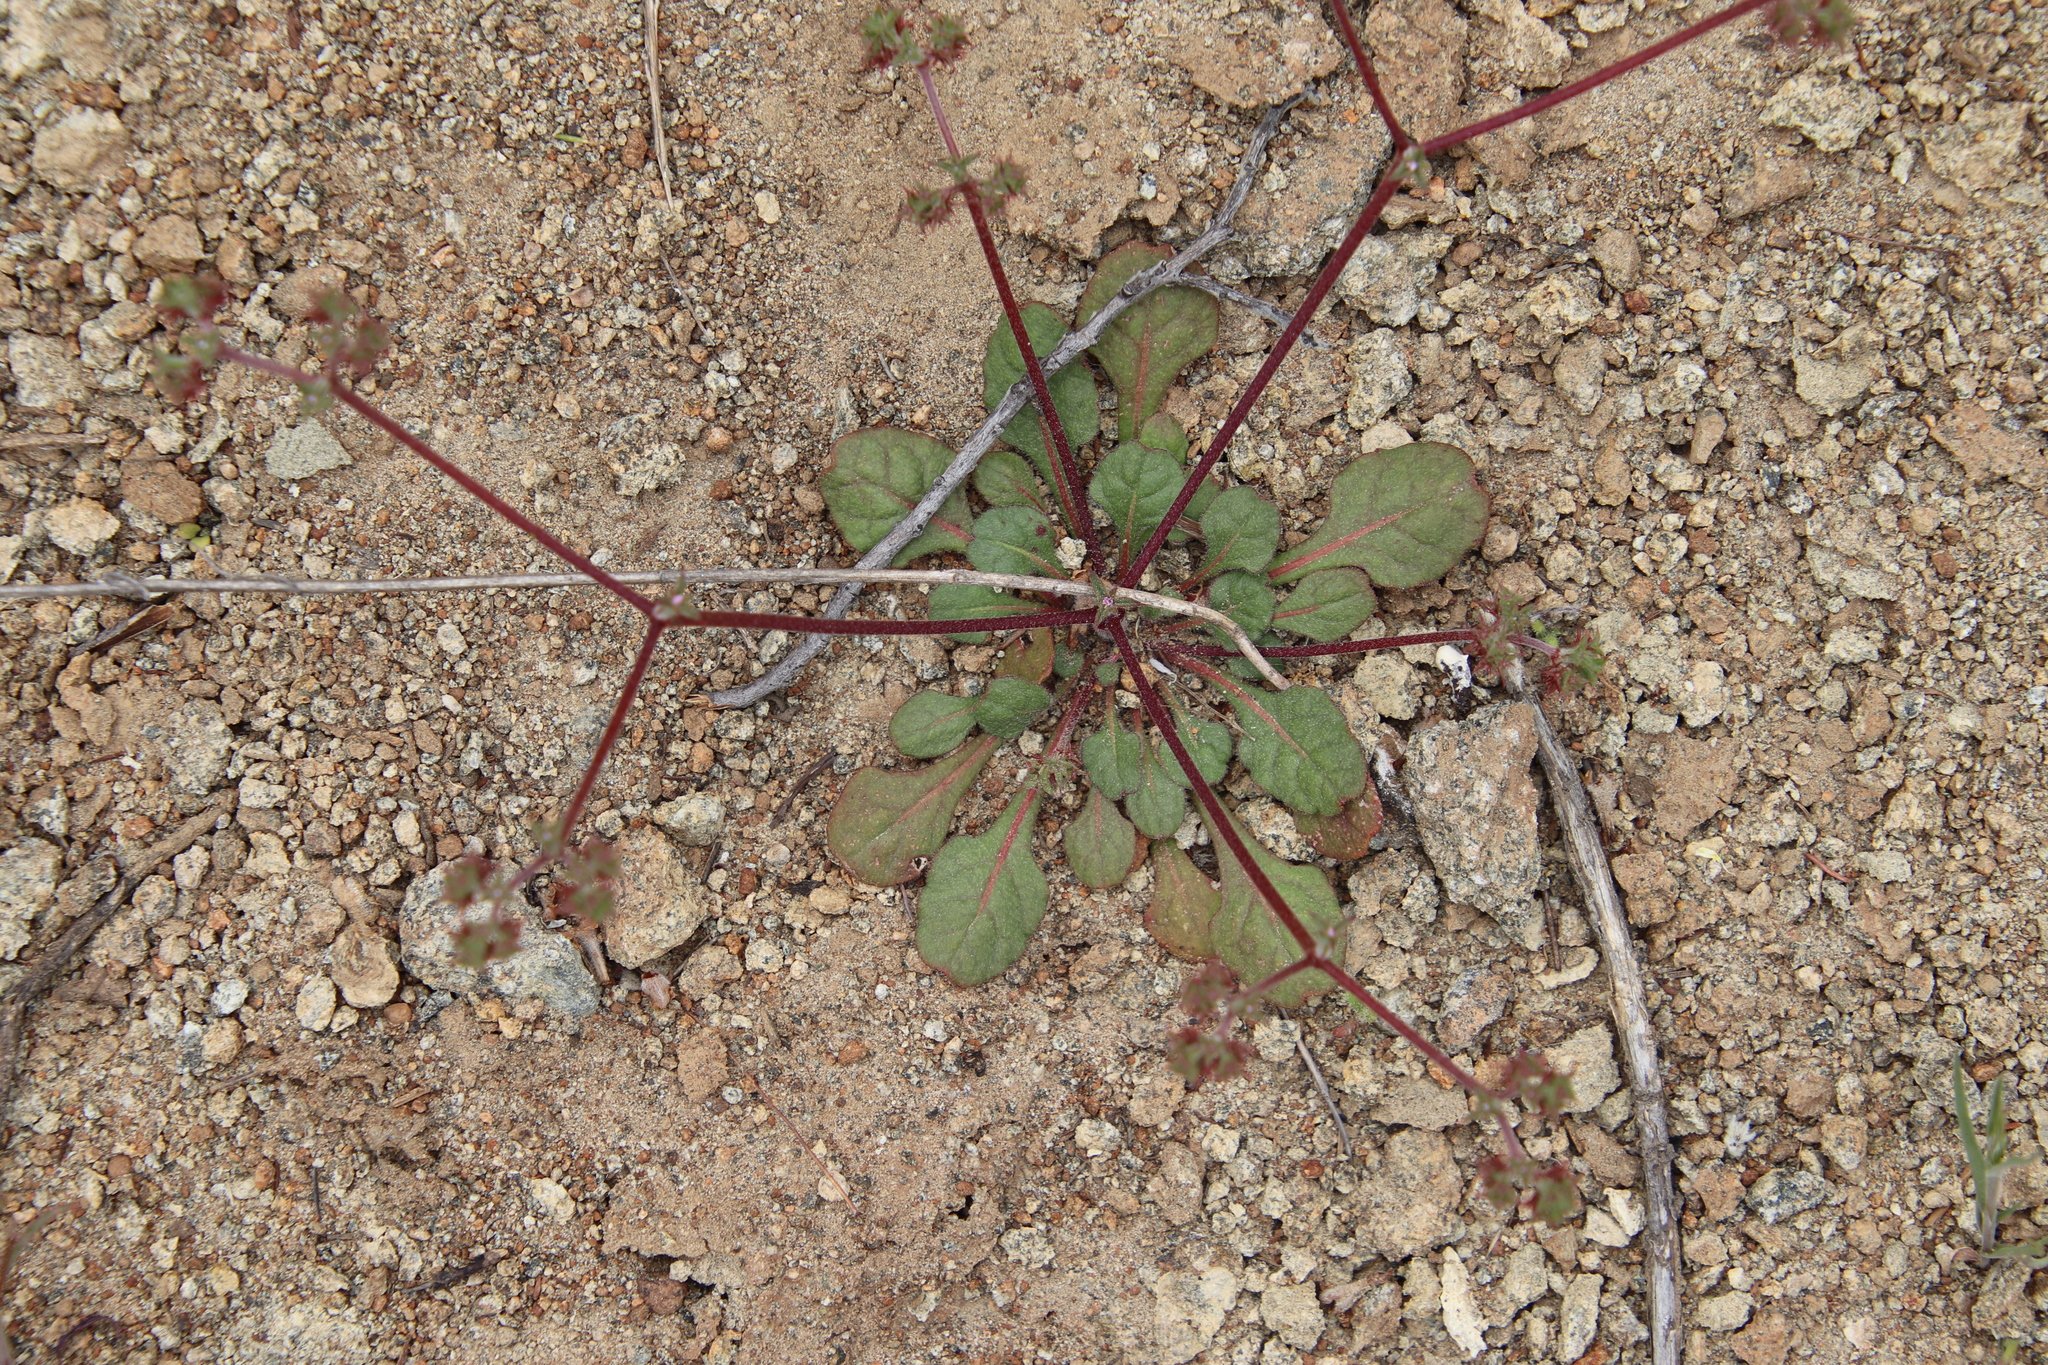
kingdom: Plantae
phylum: Tracheophyta
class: Magnoliopsida
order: Caryophyllales
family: Polygonaceae
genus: Chorizanthe
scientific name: Chorizanthe staticoides
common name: Turkish rugging
